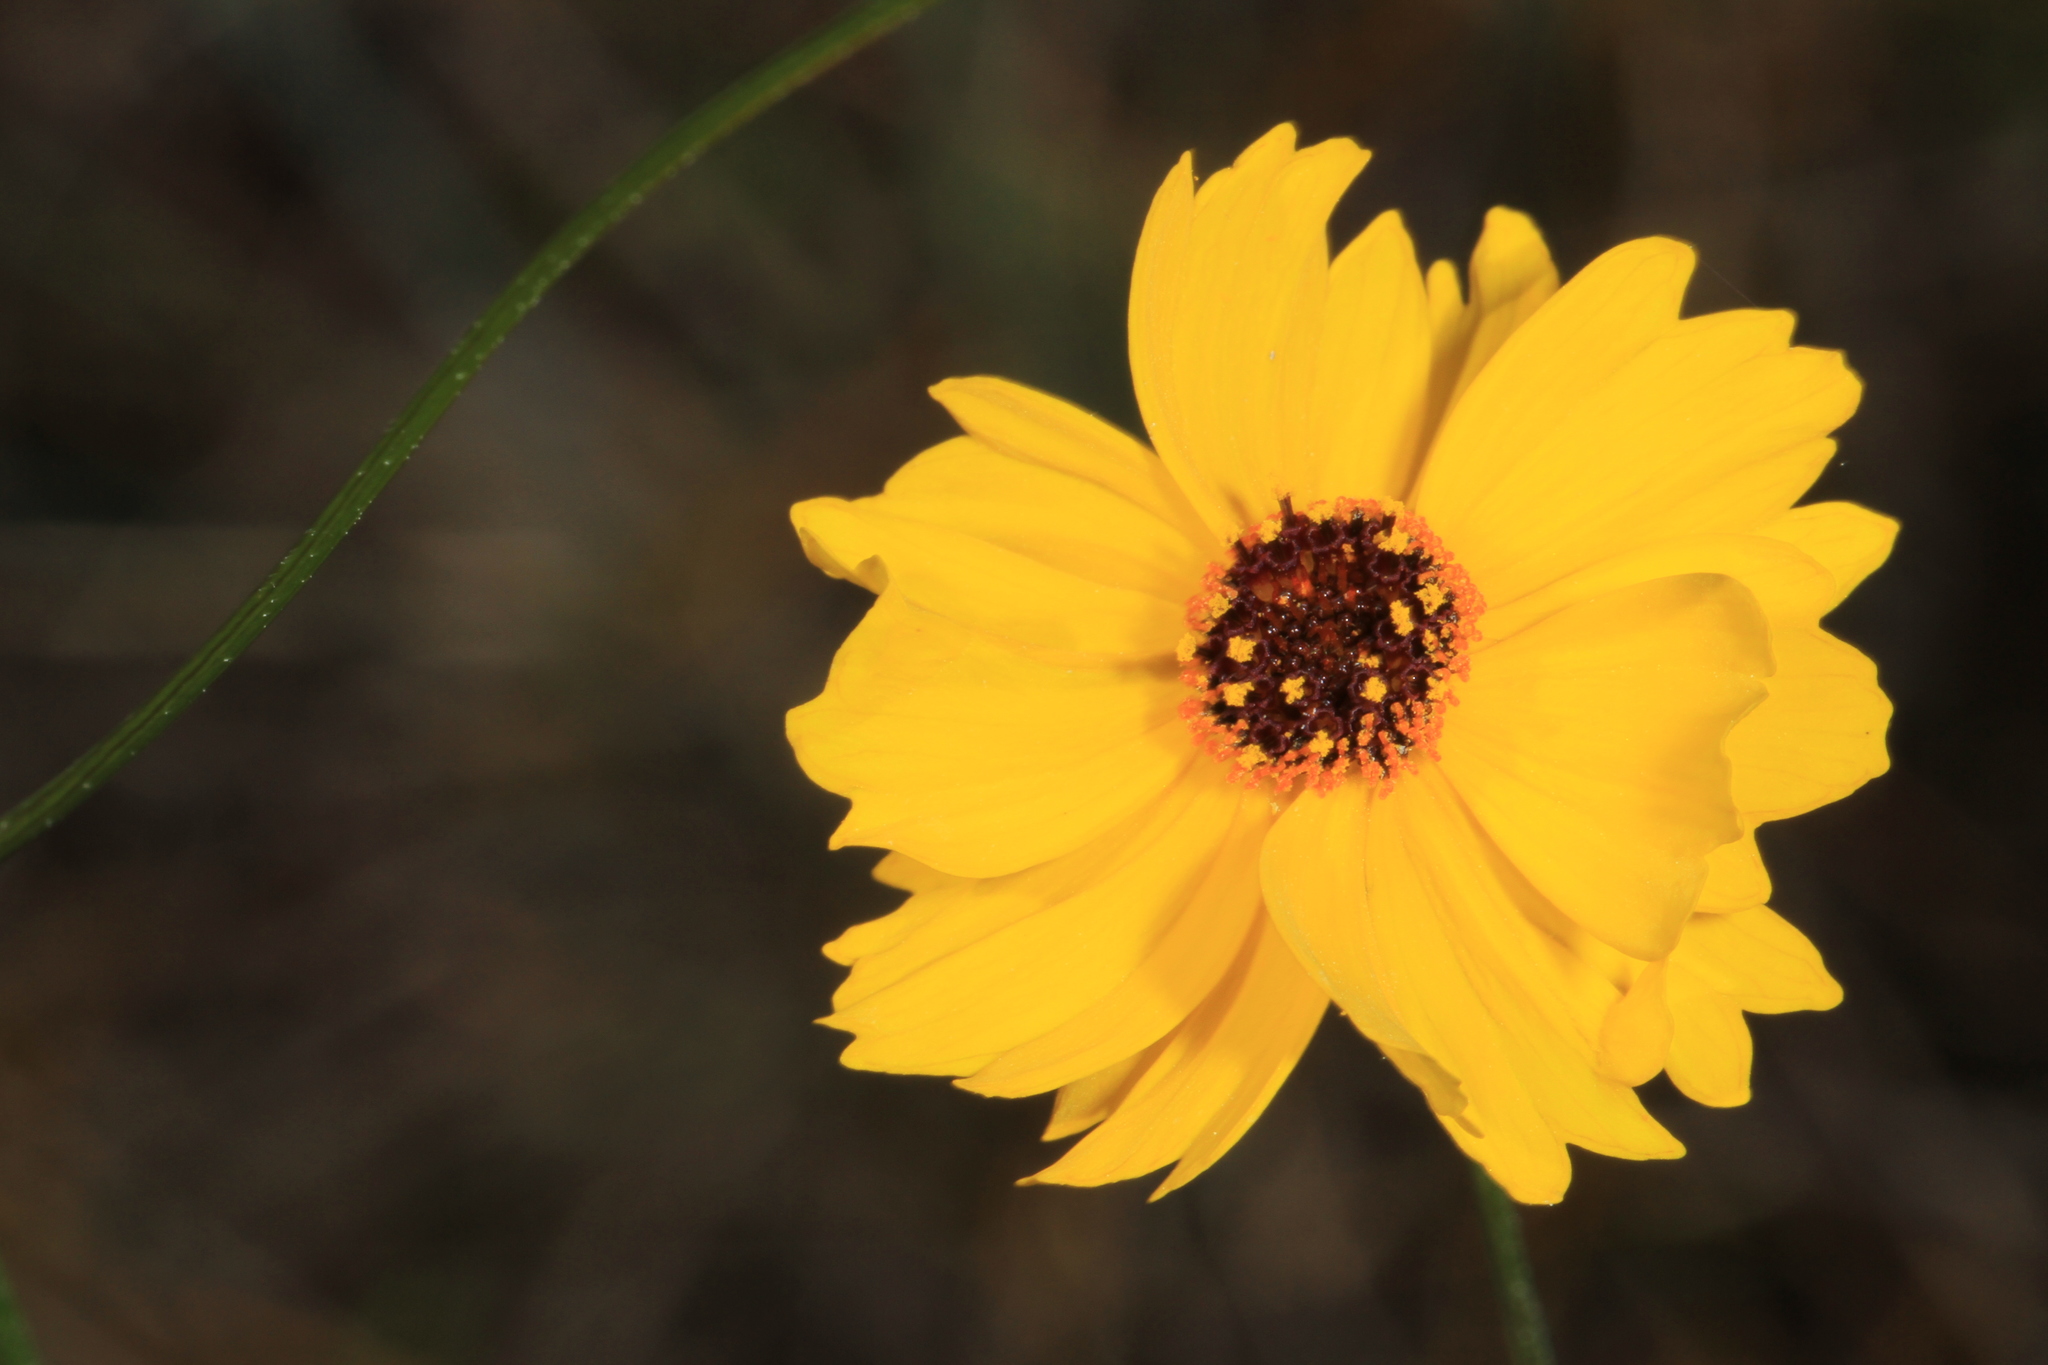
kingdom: Plantae
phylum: Tracheophyta
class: Magnoliopsida
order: Asterales
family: Asteraceae
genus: Coreopsis
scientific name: Coreopsis leavenworthii
